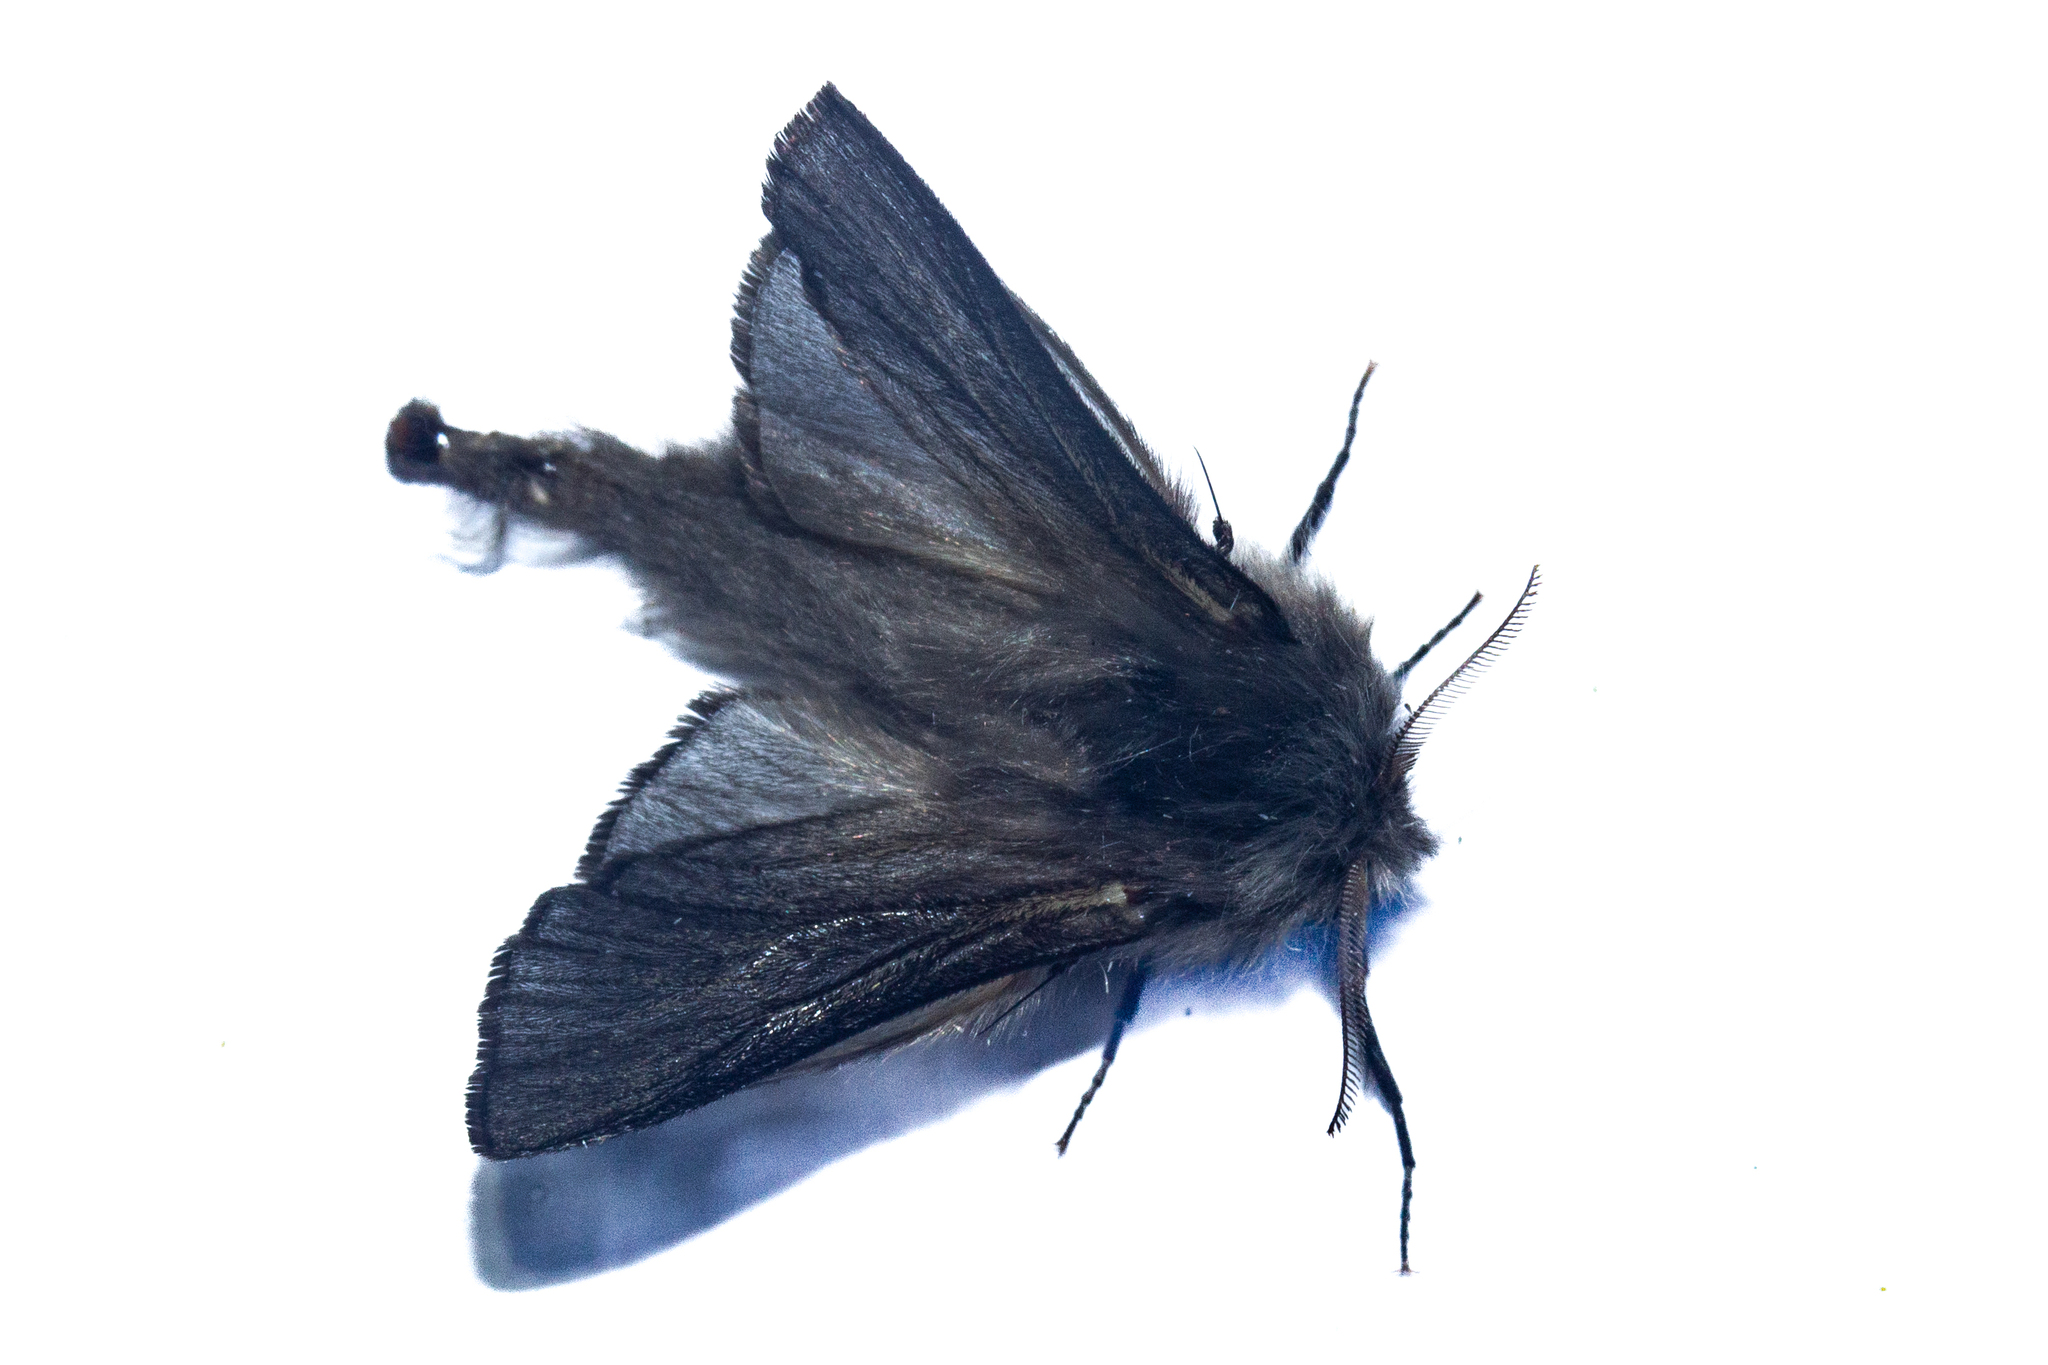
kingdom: Animalia
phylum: Arthropoda
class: Insecta
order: Lepidoptera
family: Psychidae
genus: Orophora
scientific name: Orophora unicolor
